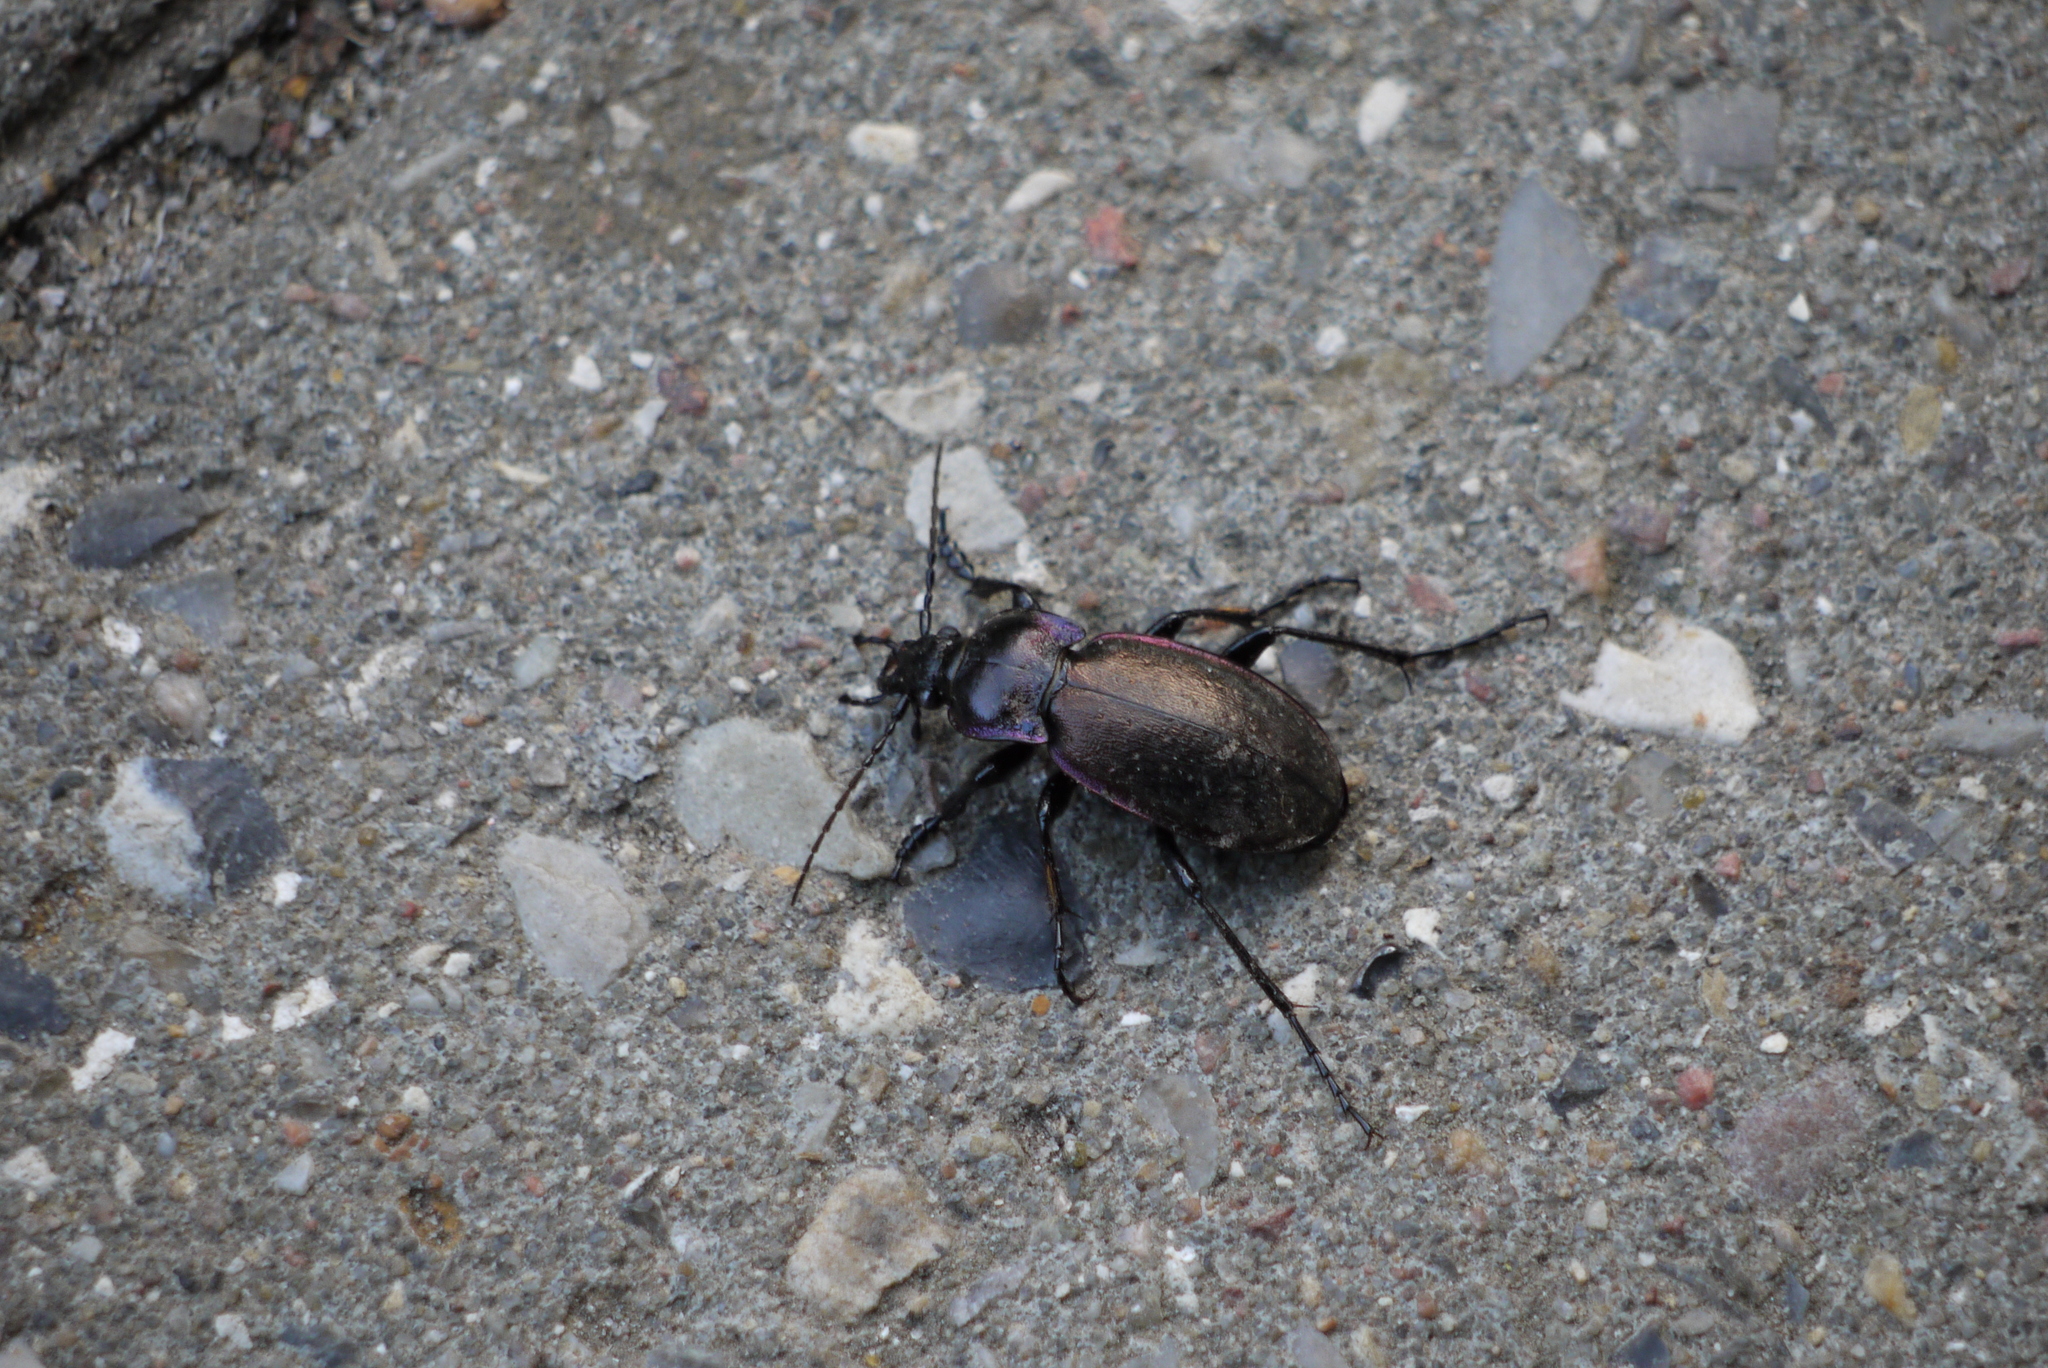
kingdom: Animalia
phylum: Arthropoda
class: Insecta
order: Coleoptera
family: Carabidae
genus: Carabus
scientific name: Carabus nemoralis
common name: European ground beetle
